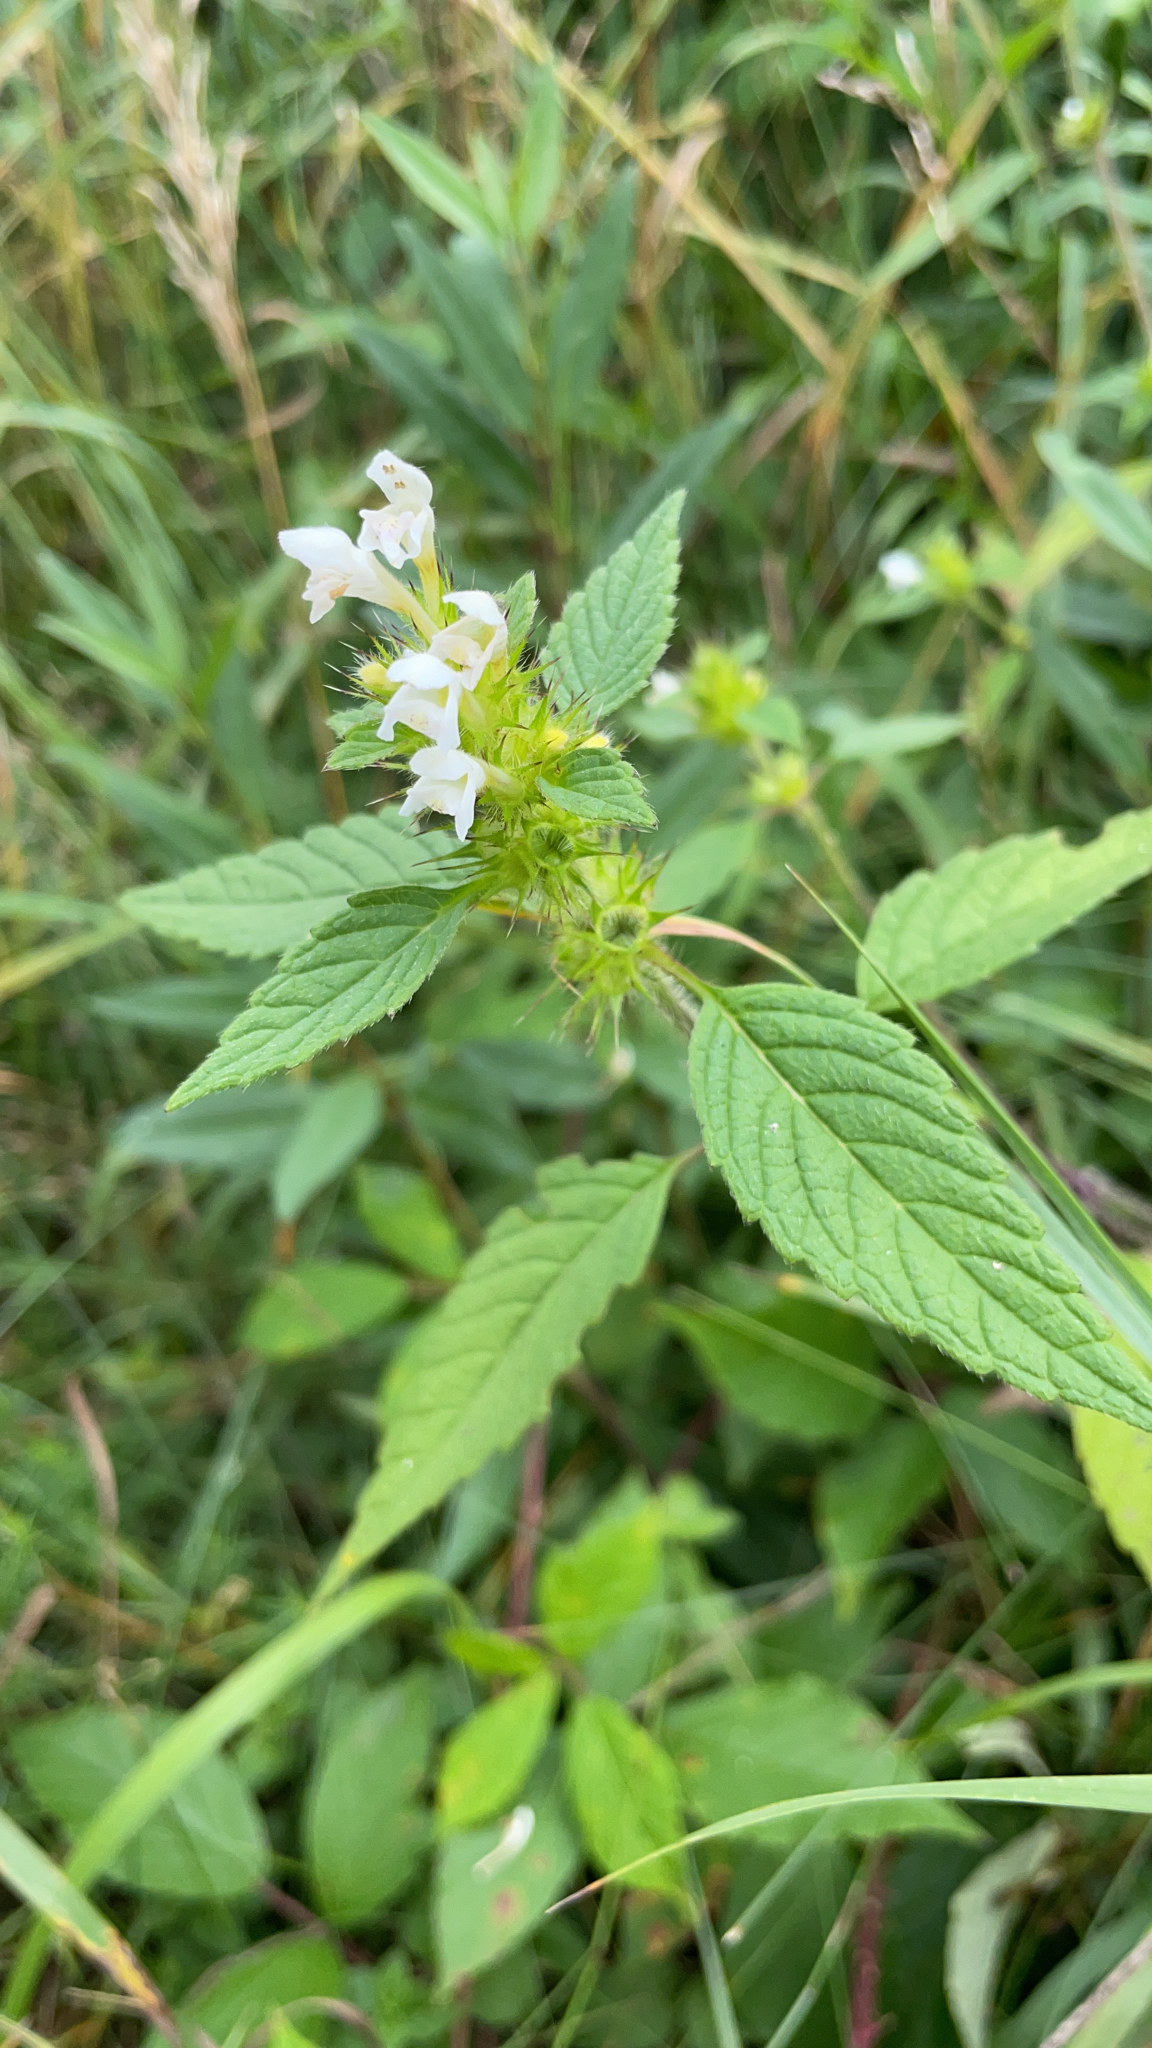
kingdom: Plantae
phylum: Tracheophyta
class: Magnoliopsida
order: Lamiales
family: Lamiaceae
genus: Galeopsis
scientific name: Galeopsis tetrahit
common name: Common hemp-nettle
